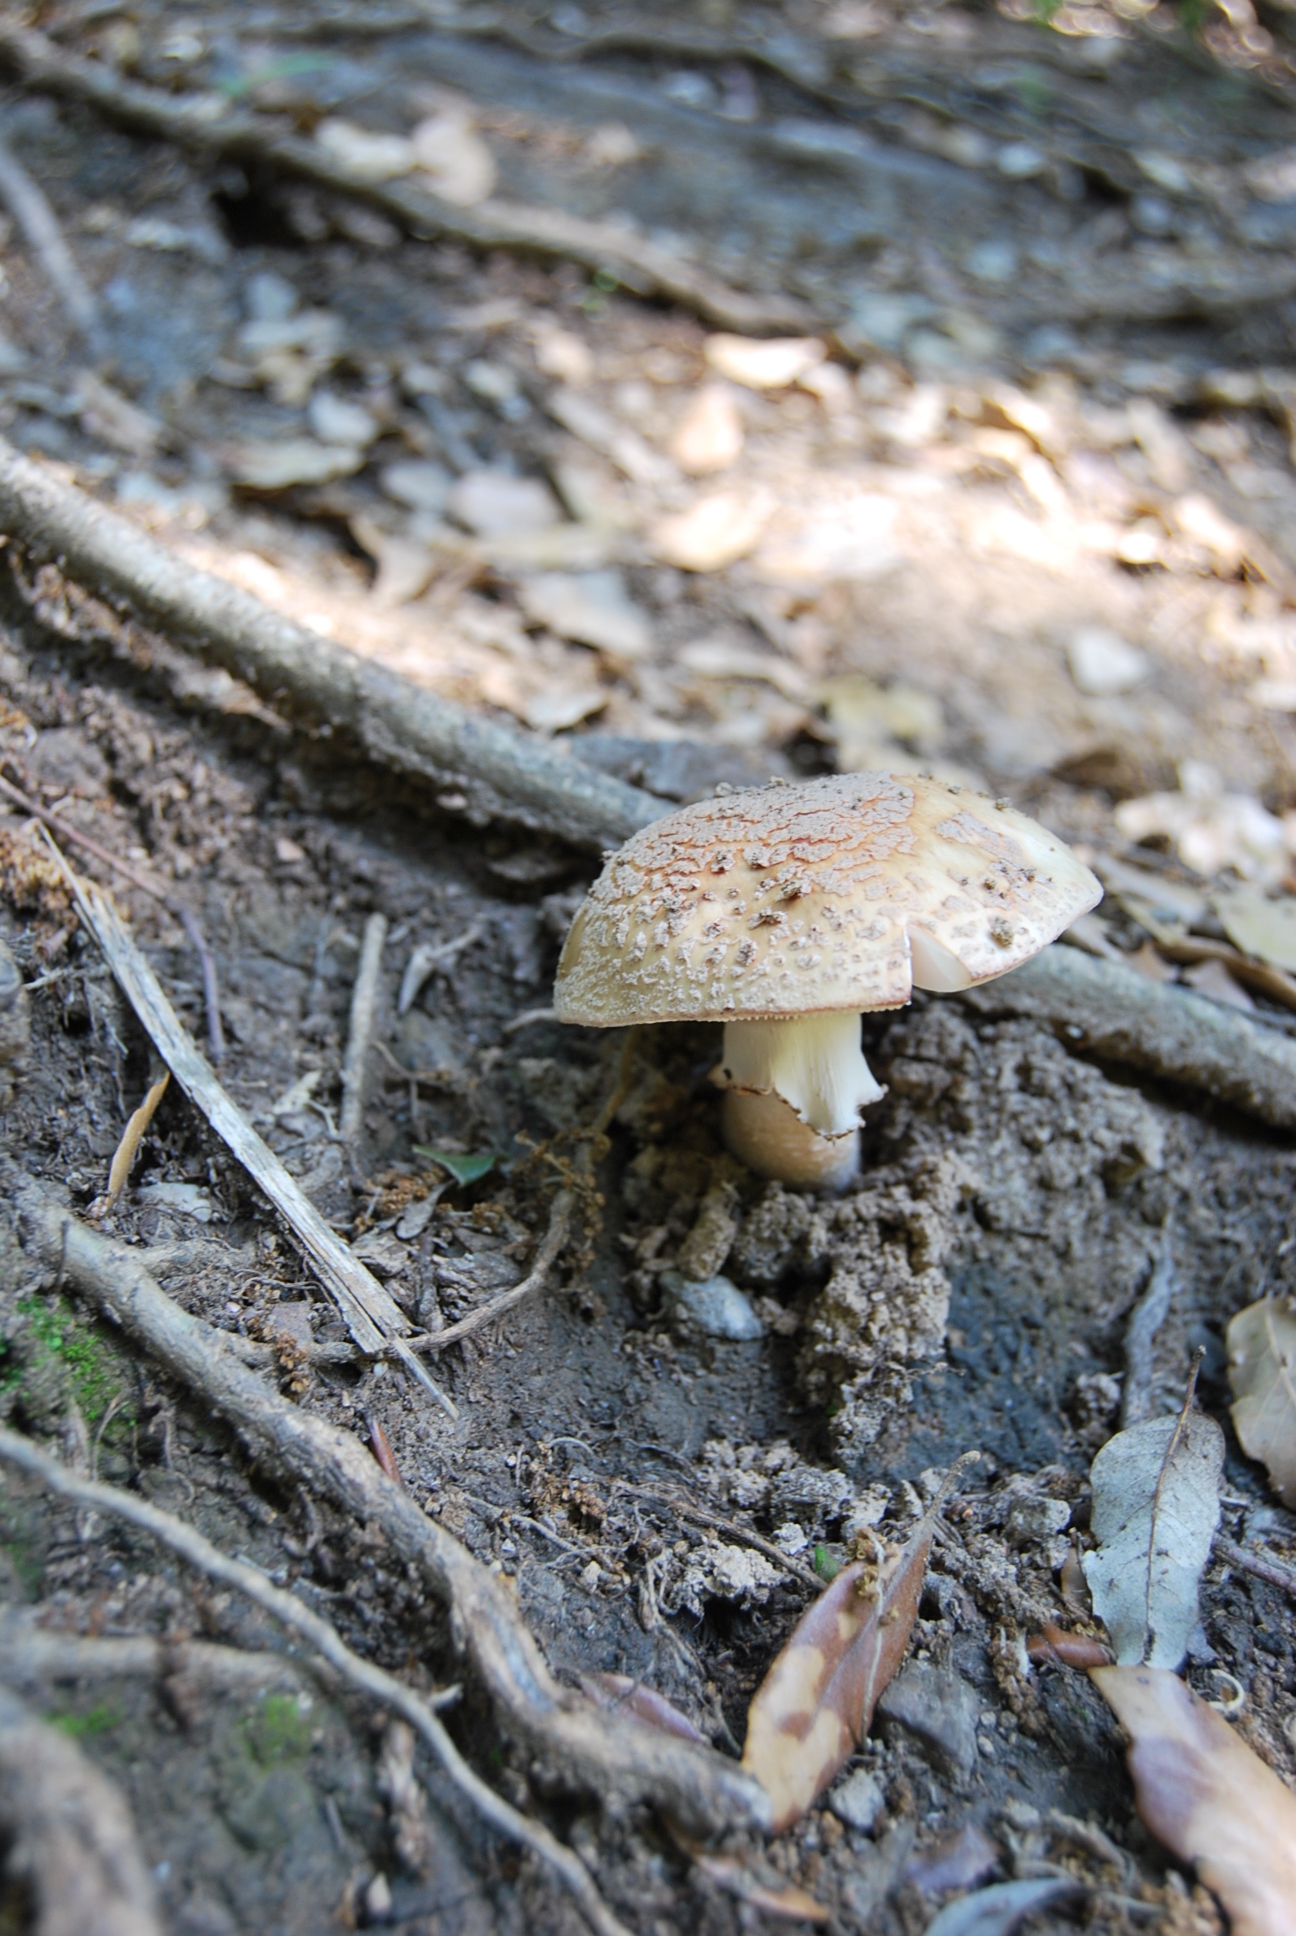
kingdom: Fungi
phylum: Basidiomycota
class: Agaricomycetes
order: Agaricales
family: Amanitaceae
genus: Amanita
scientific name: Amanita excelsa
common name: European false blusher
